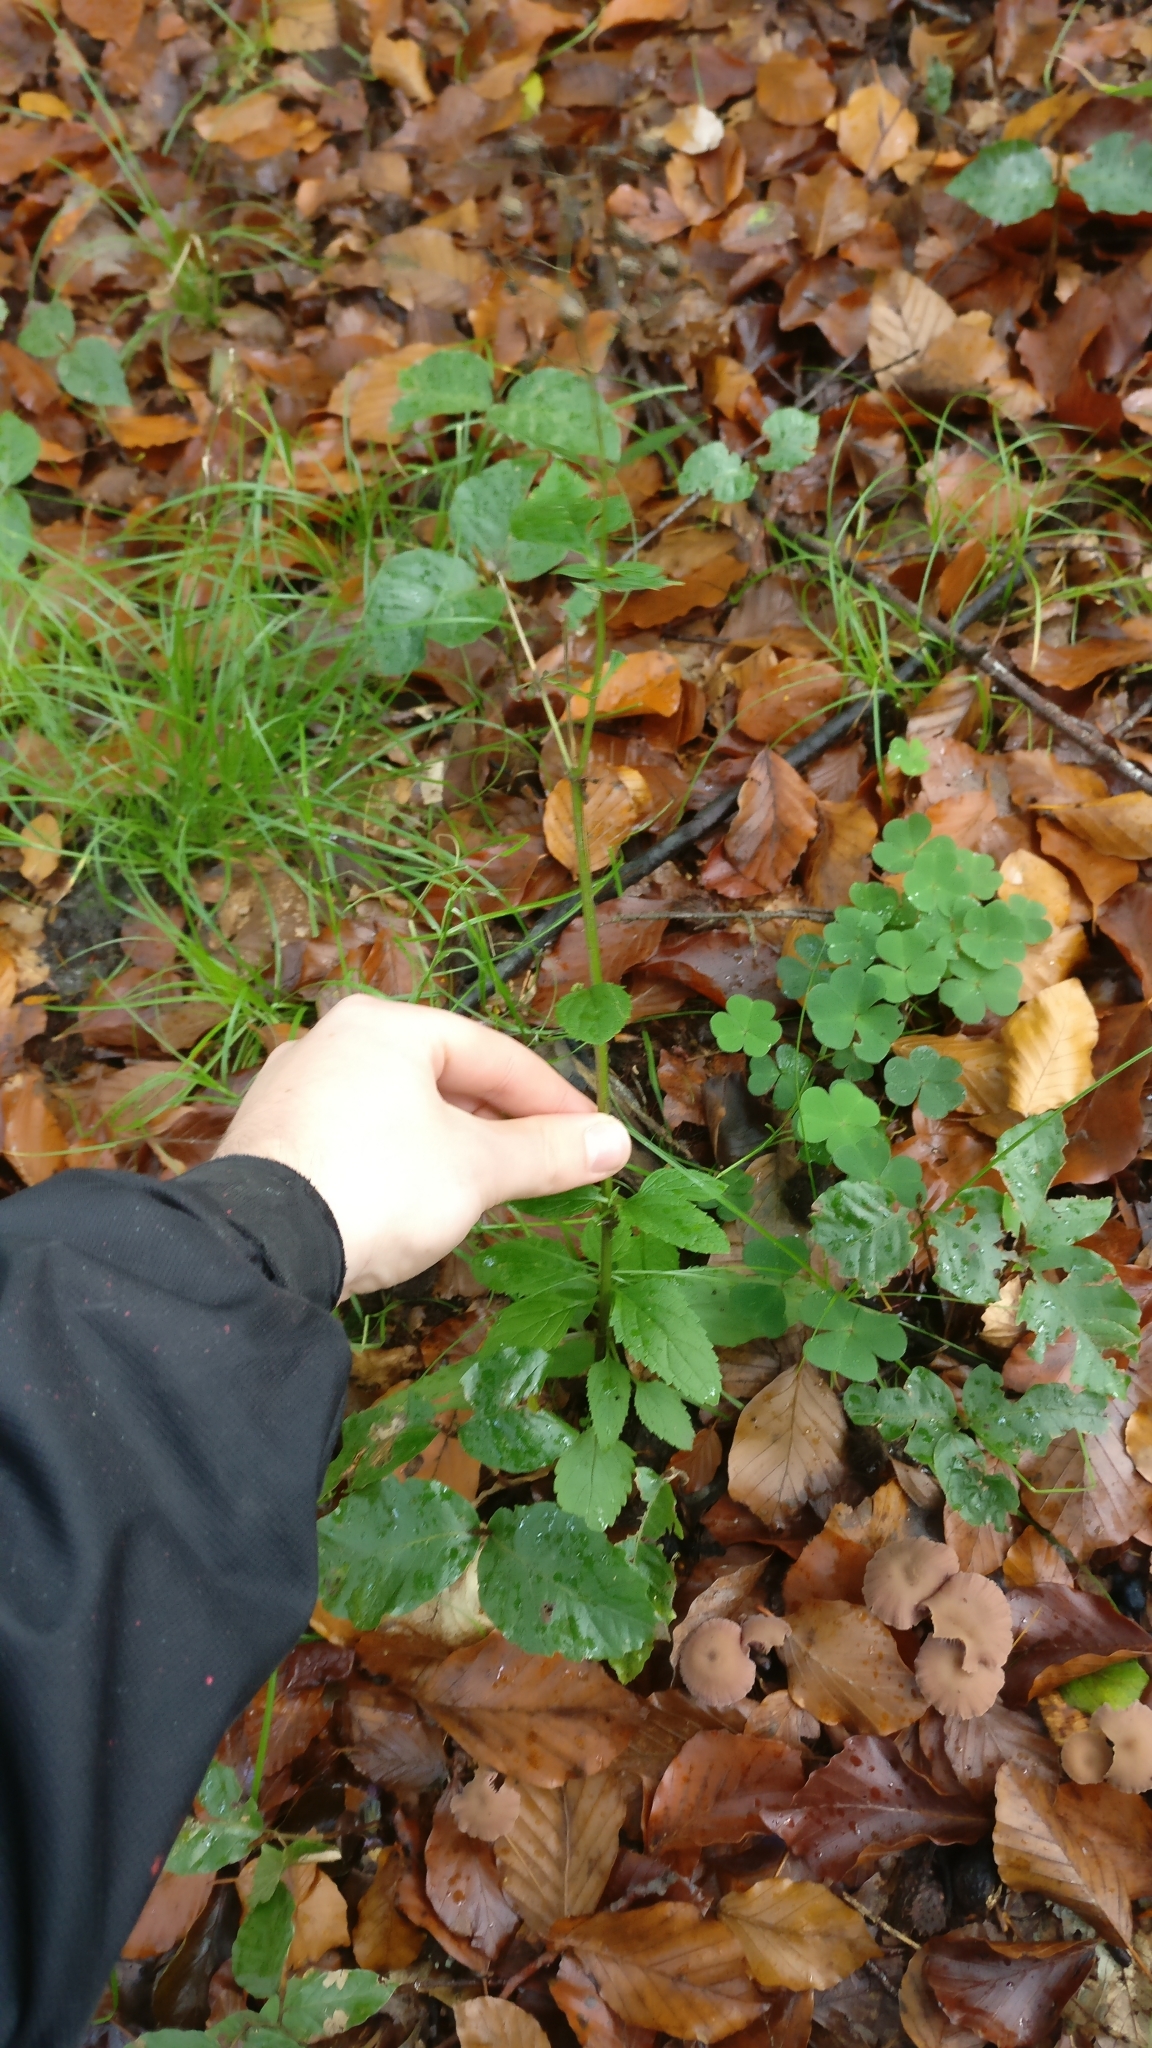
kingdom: Plantae
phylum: Tracheophyta
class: Magnoliopsida
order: Lamiales
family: Scrophulariaceae
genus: Scrophularia
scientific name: Scrophularia nodosa
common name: Common figwort
